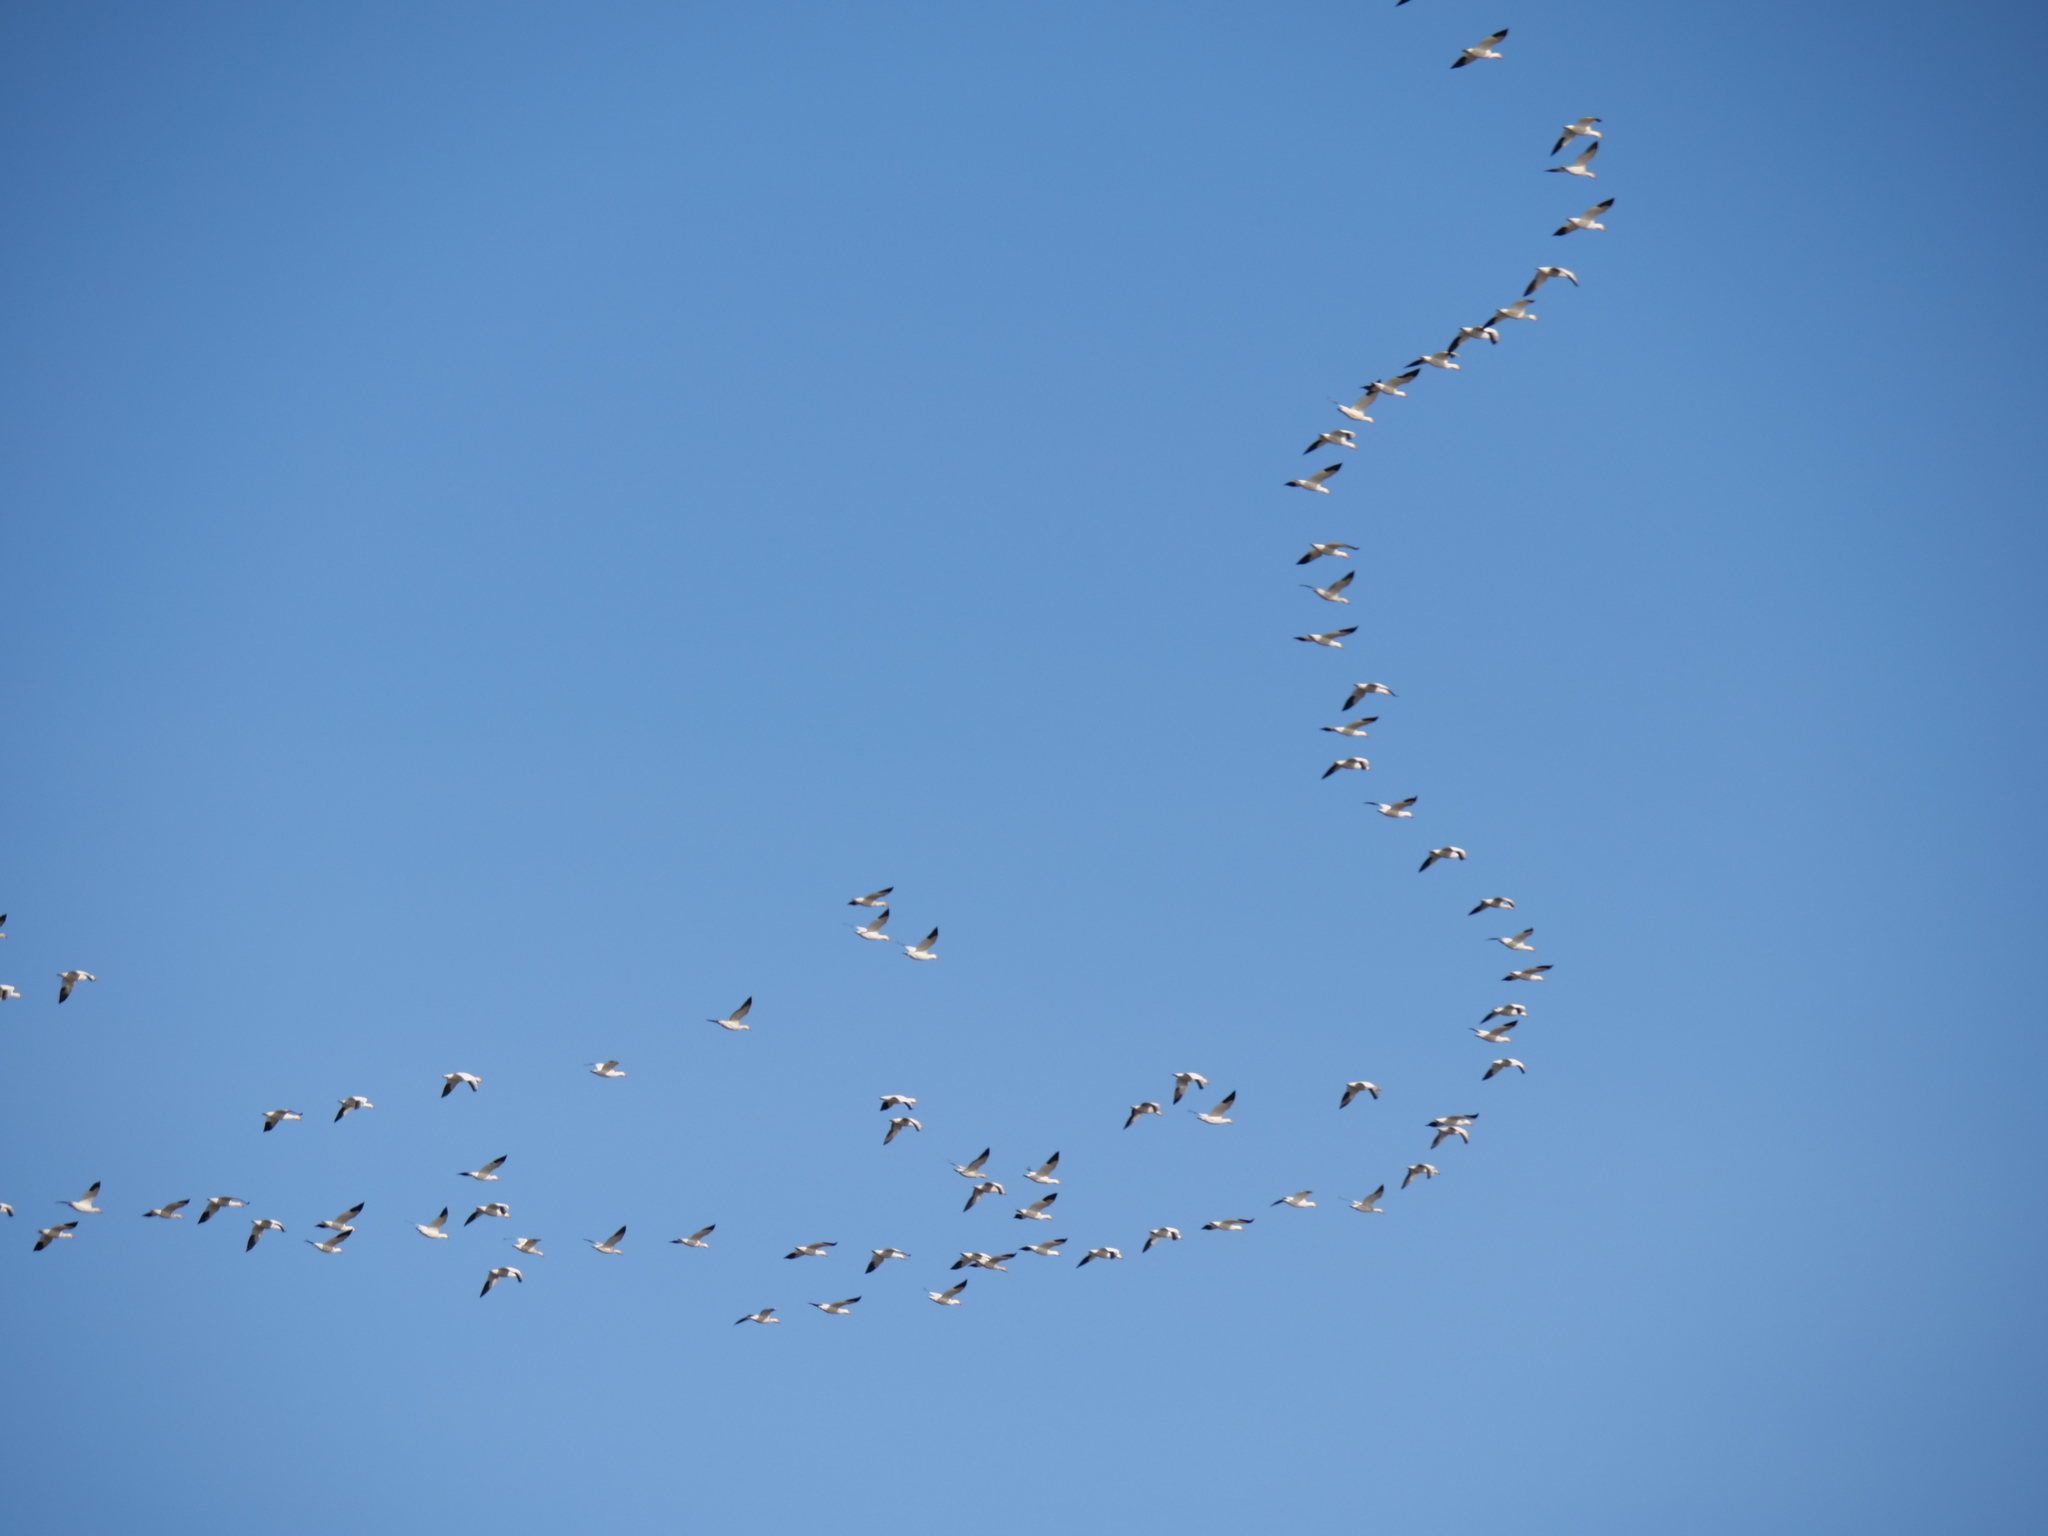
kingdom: Animalia
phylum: Chordata
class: Aves
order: Anseriformes
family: Anatidae
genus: Anser
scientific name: Anser caerulescens
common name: Snow goose
